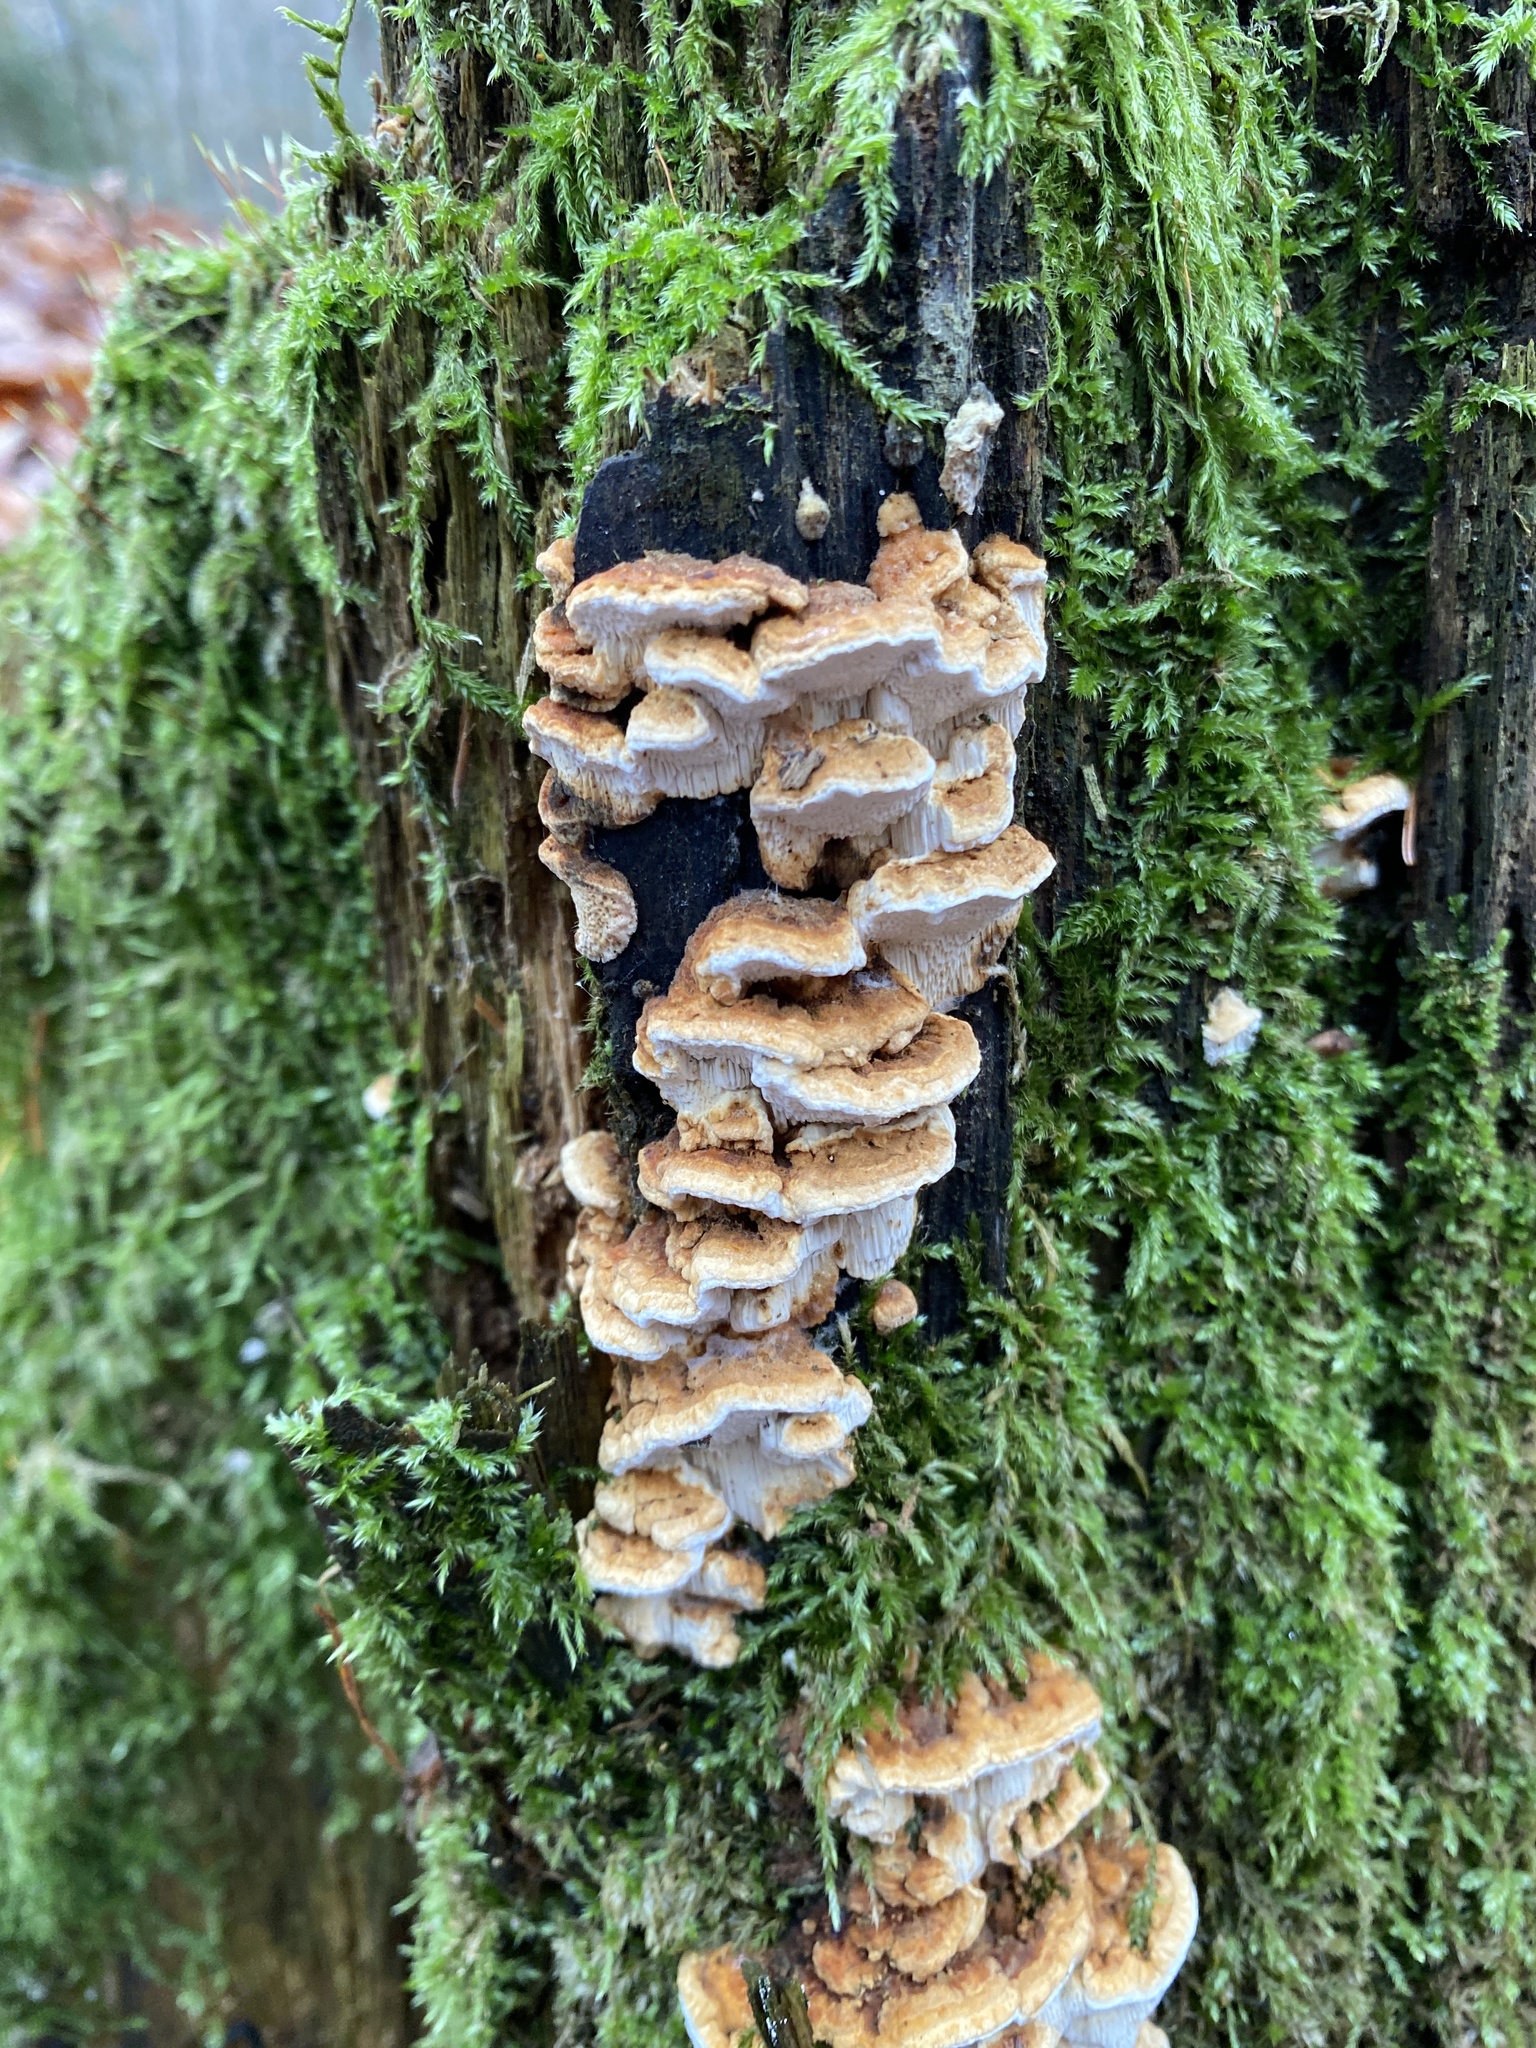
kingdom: Fungi
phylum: Basidiomycota
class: Agaricomycetes
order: Polyporales
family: Fomitopsidaceae
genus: Neoantrodia
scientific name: Neoantrodia serialis
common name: Serried porecrust
